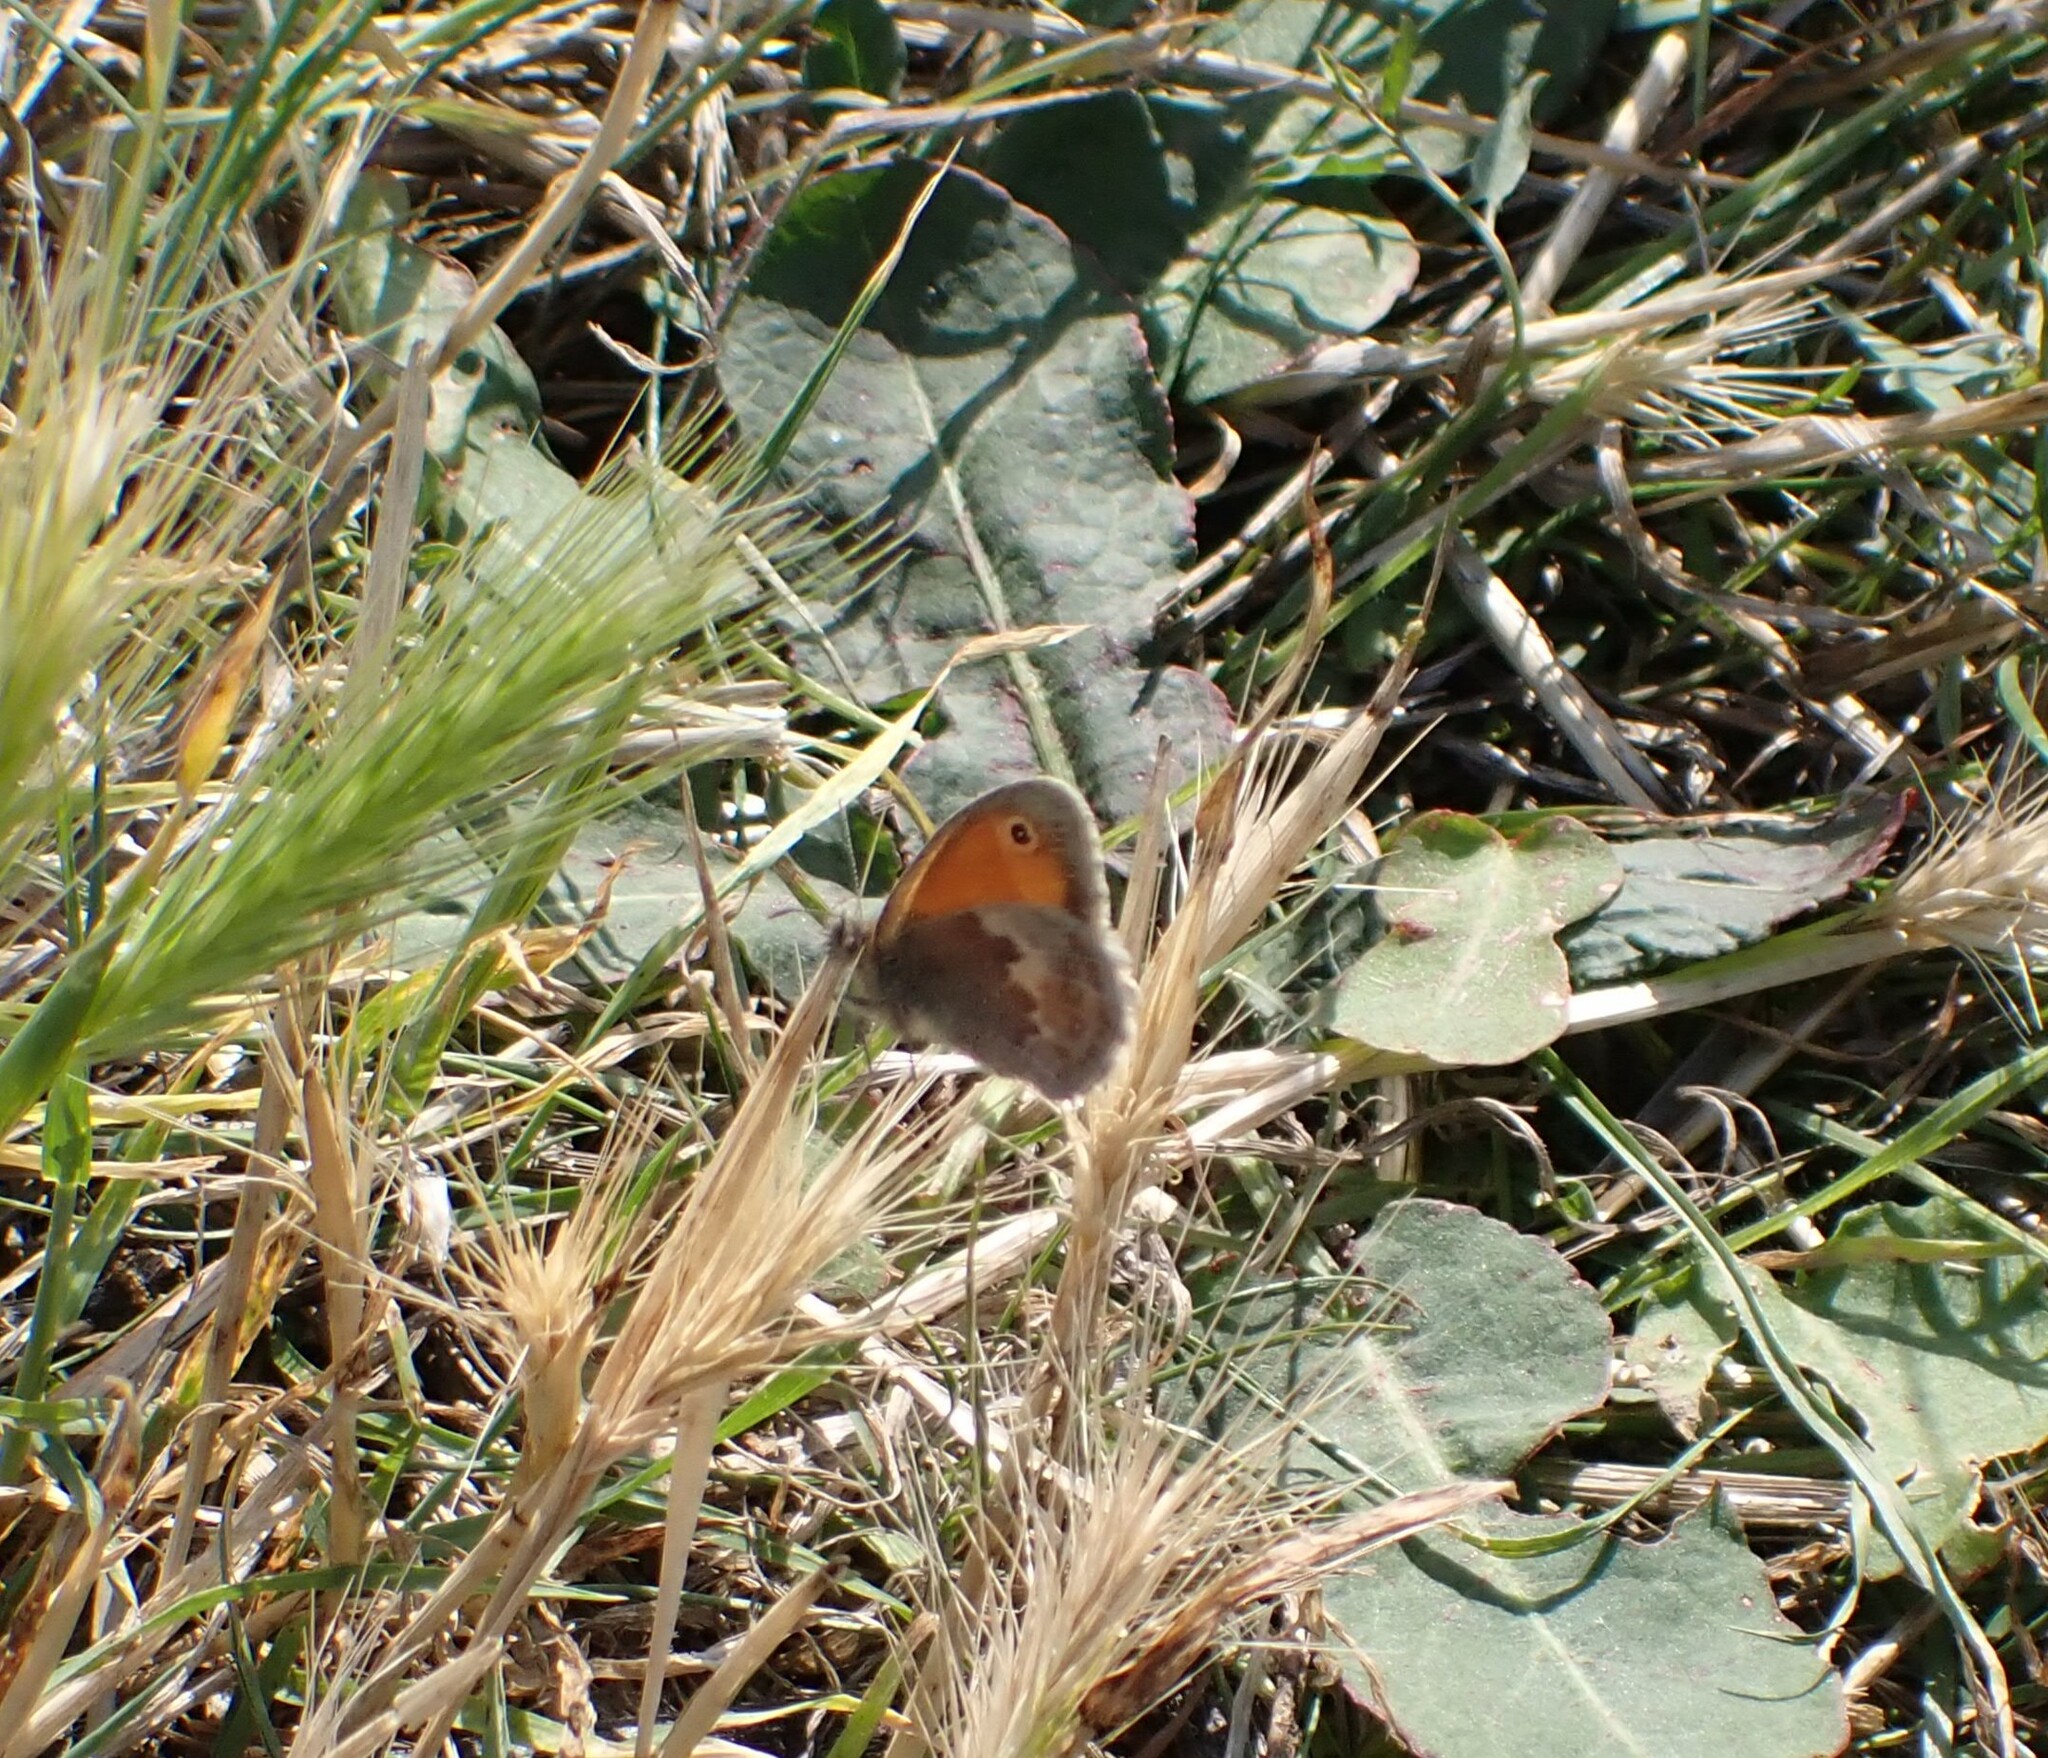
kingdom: Animalia
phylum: Arthropoda
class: Insecta
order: Lepidoptera
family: Nymphalidae
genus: Coenonympha
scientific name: Coenonympha pamphilus
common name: Small heath
